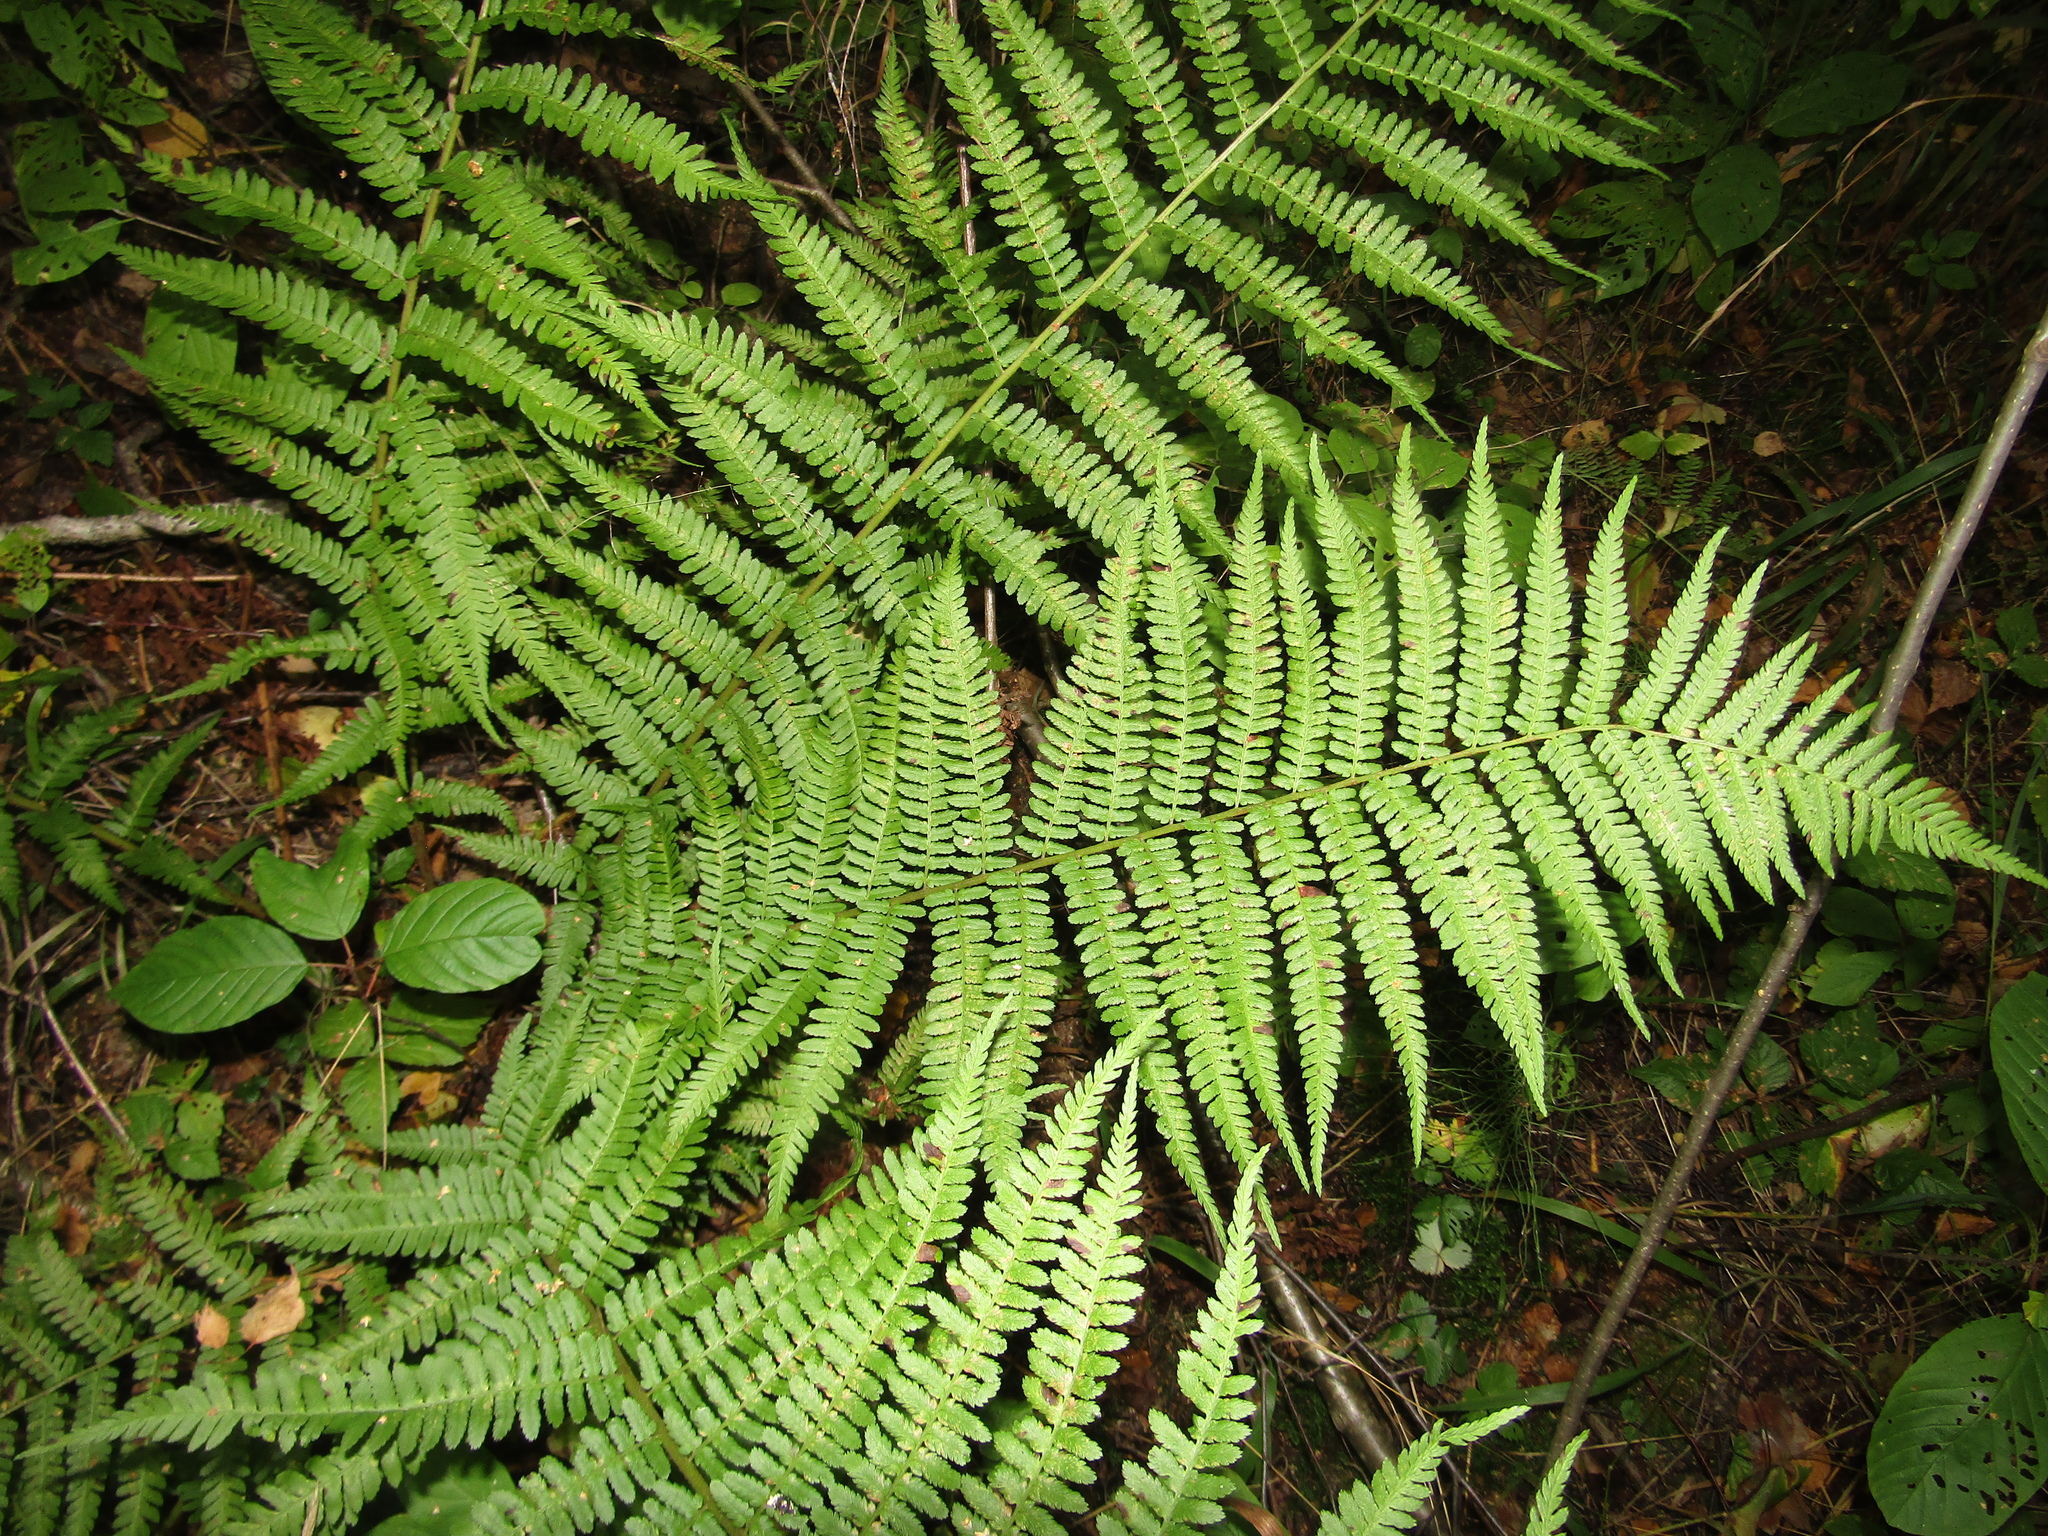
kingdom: Plantae
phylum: Tracheophyta
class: Polypodiopsida
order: Polypodiales
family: Dryopteridaceae
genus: Dryopteris
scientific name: Dryopteris filix-mas
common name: Male fern
